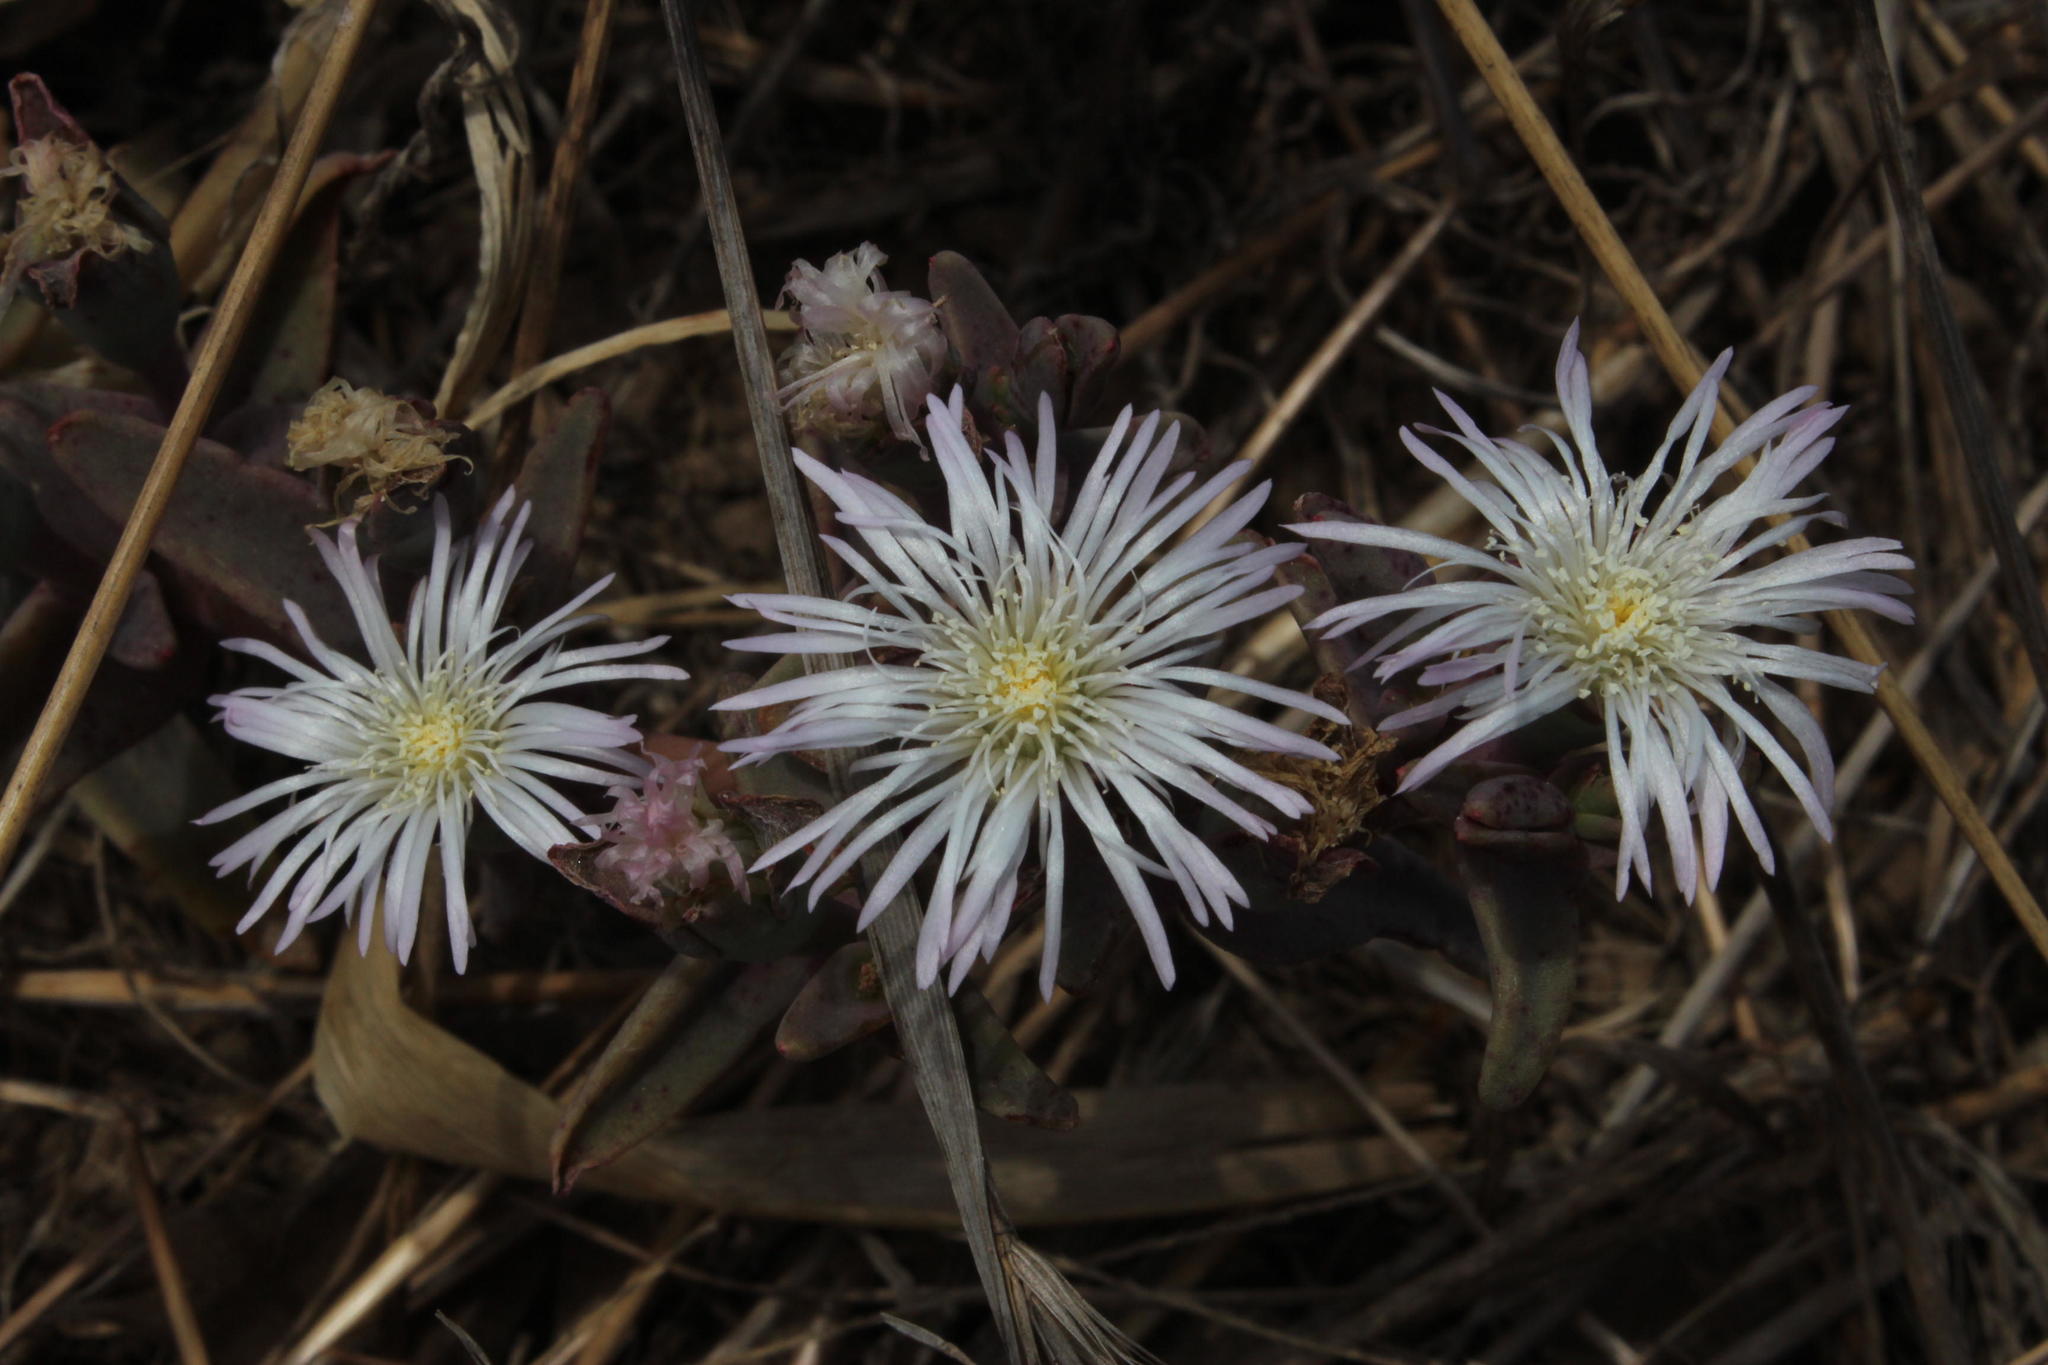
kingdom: Plantae
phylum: Tracheophyta
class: Magnoliopsida
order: Caryophyllales
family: Aizoaceae
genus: Mesembryanthemum
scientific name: Mesembryanthemum pallens
